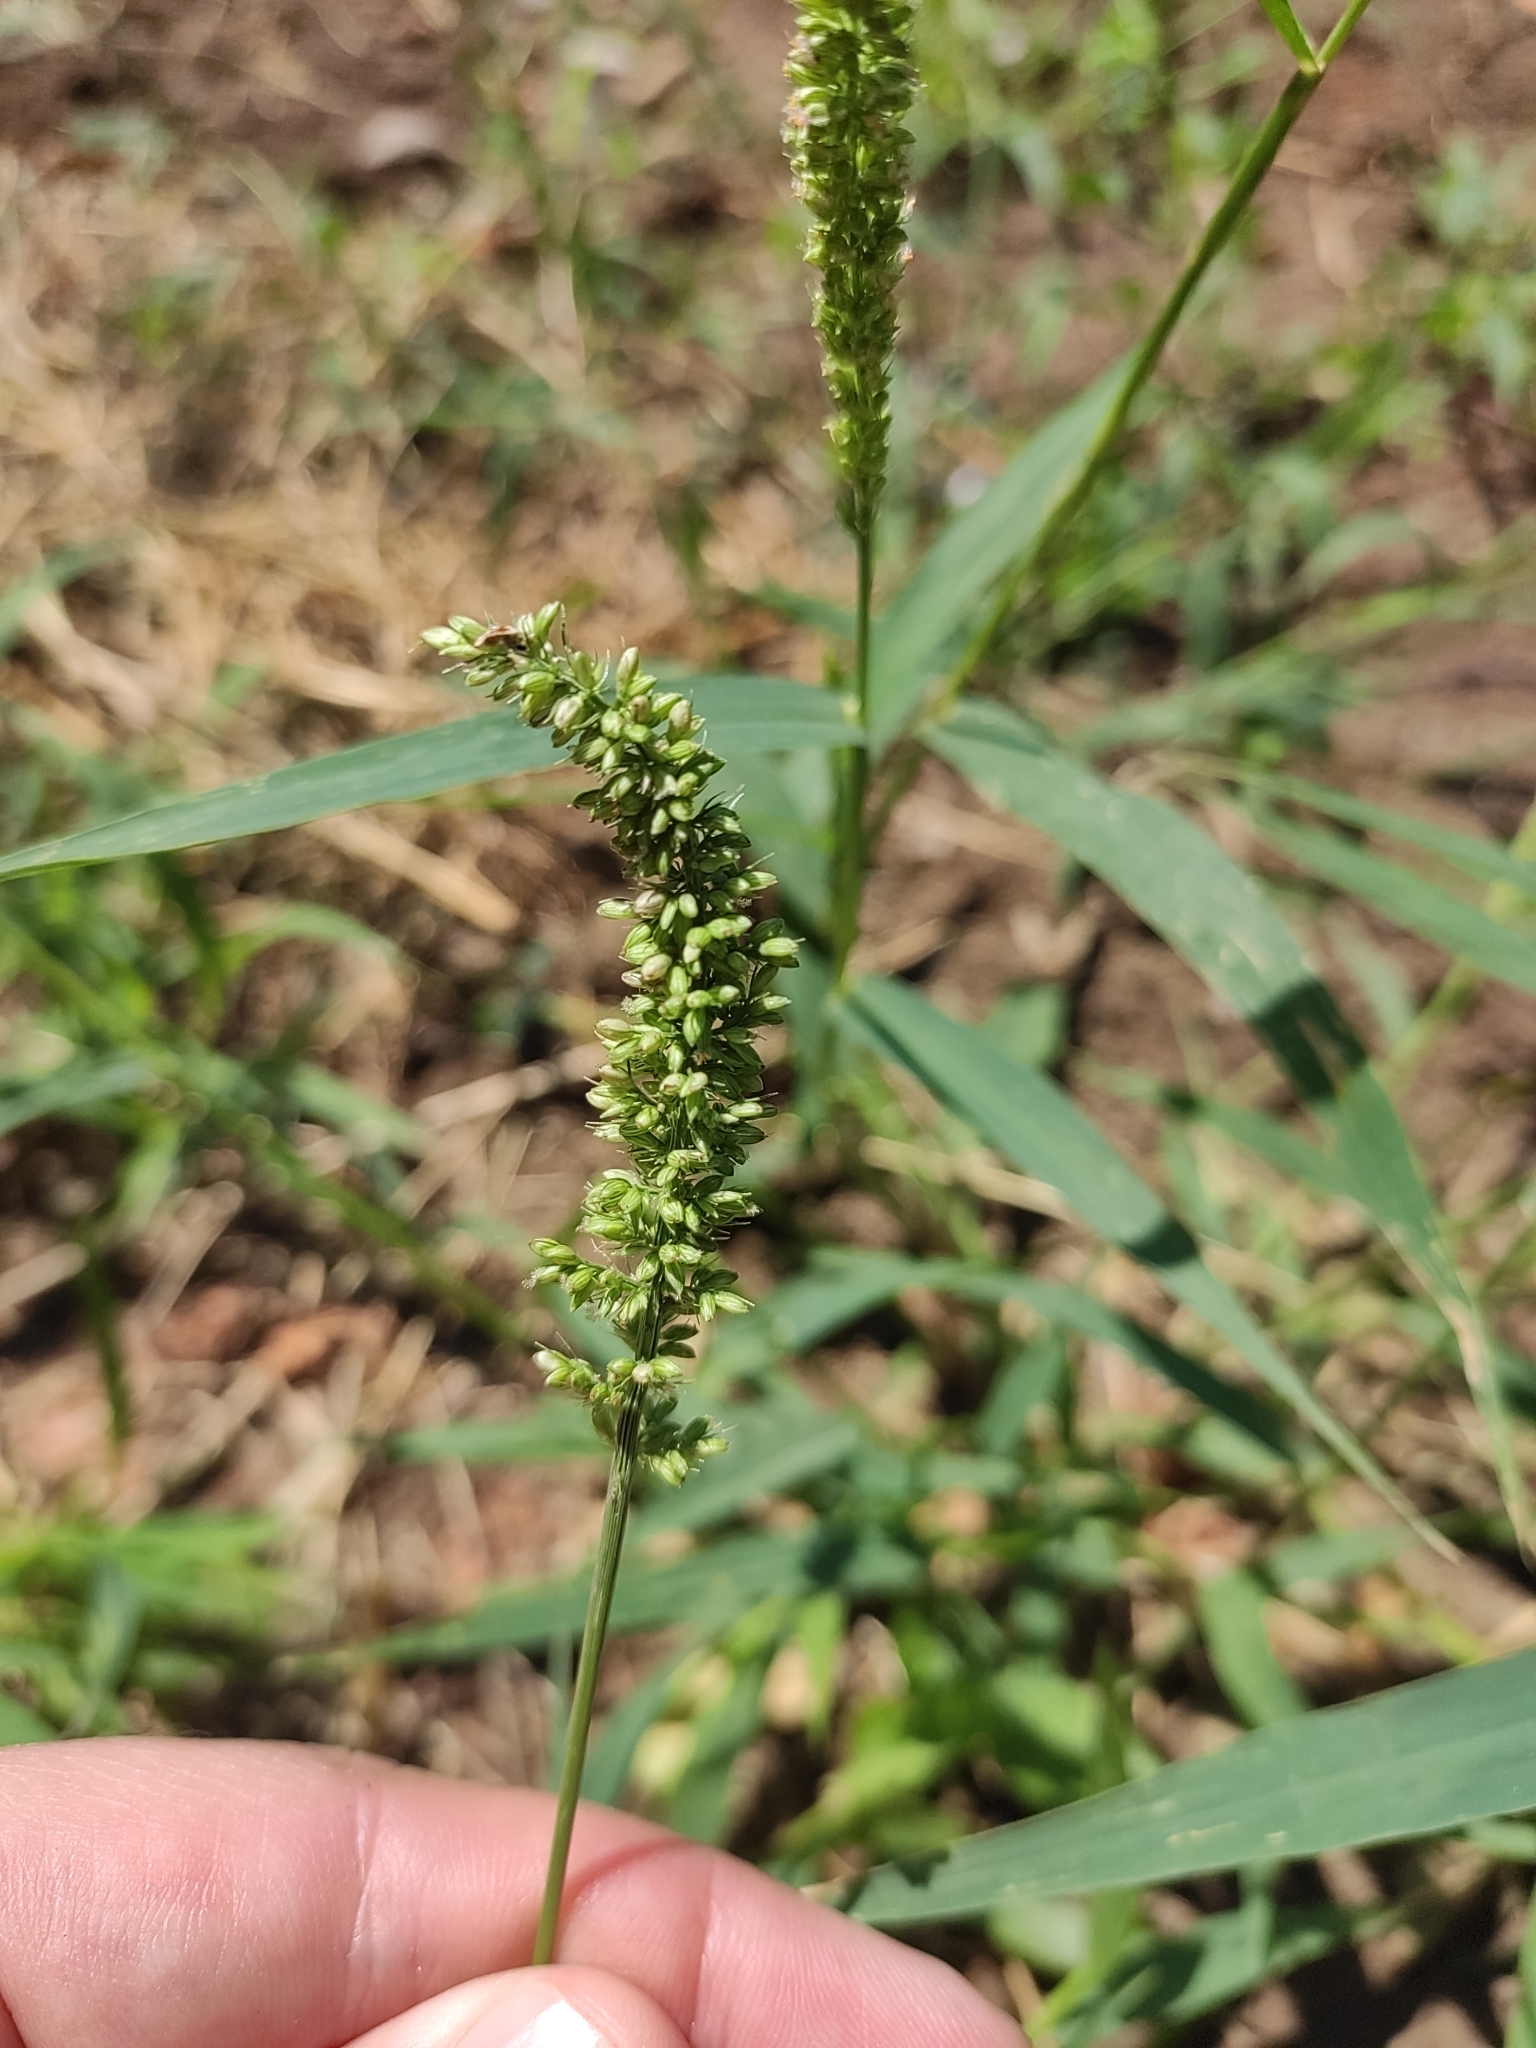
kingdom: Plantae
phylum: Tracheophyta
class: Liliopsida
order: Poales
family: Poaceae
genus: Setaria
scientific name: Setaria verticillata
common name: Hooked bristlegrass
